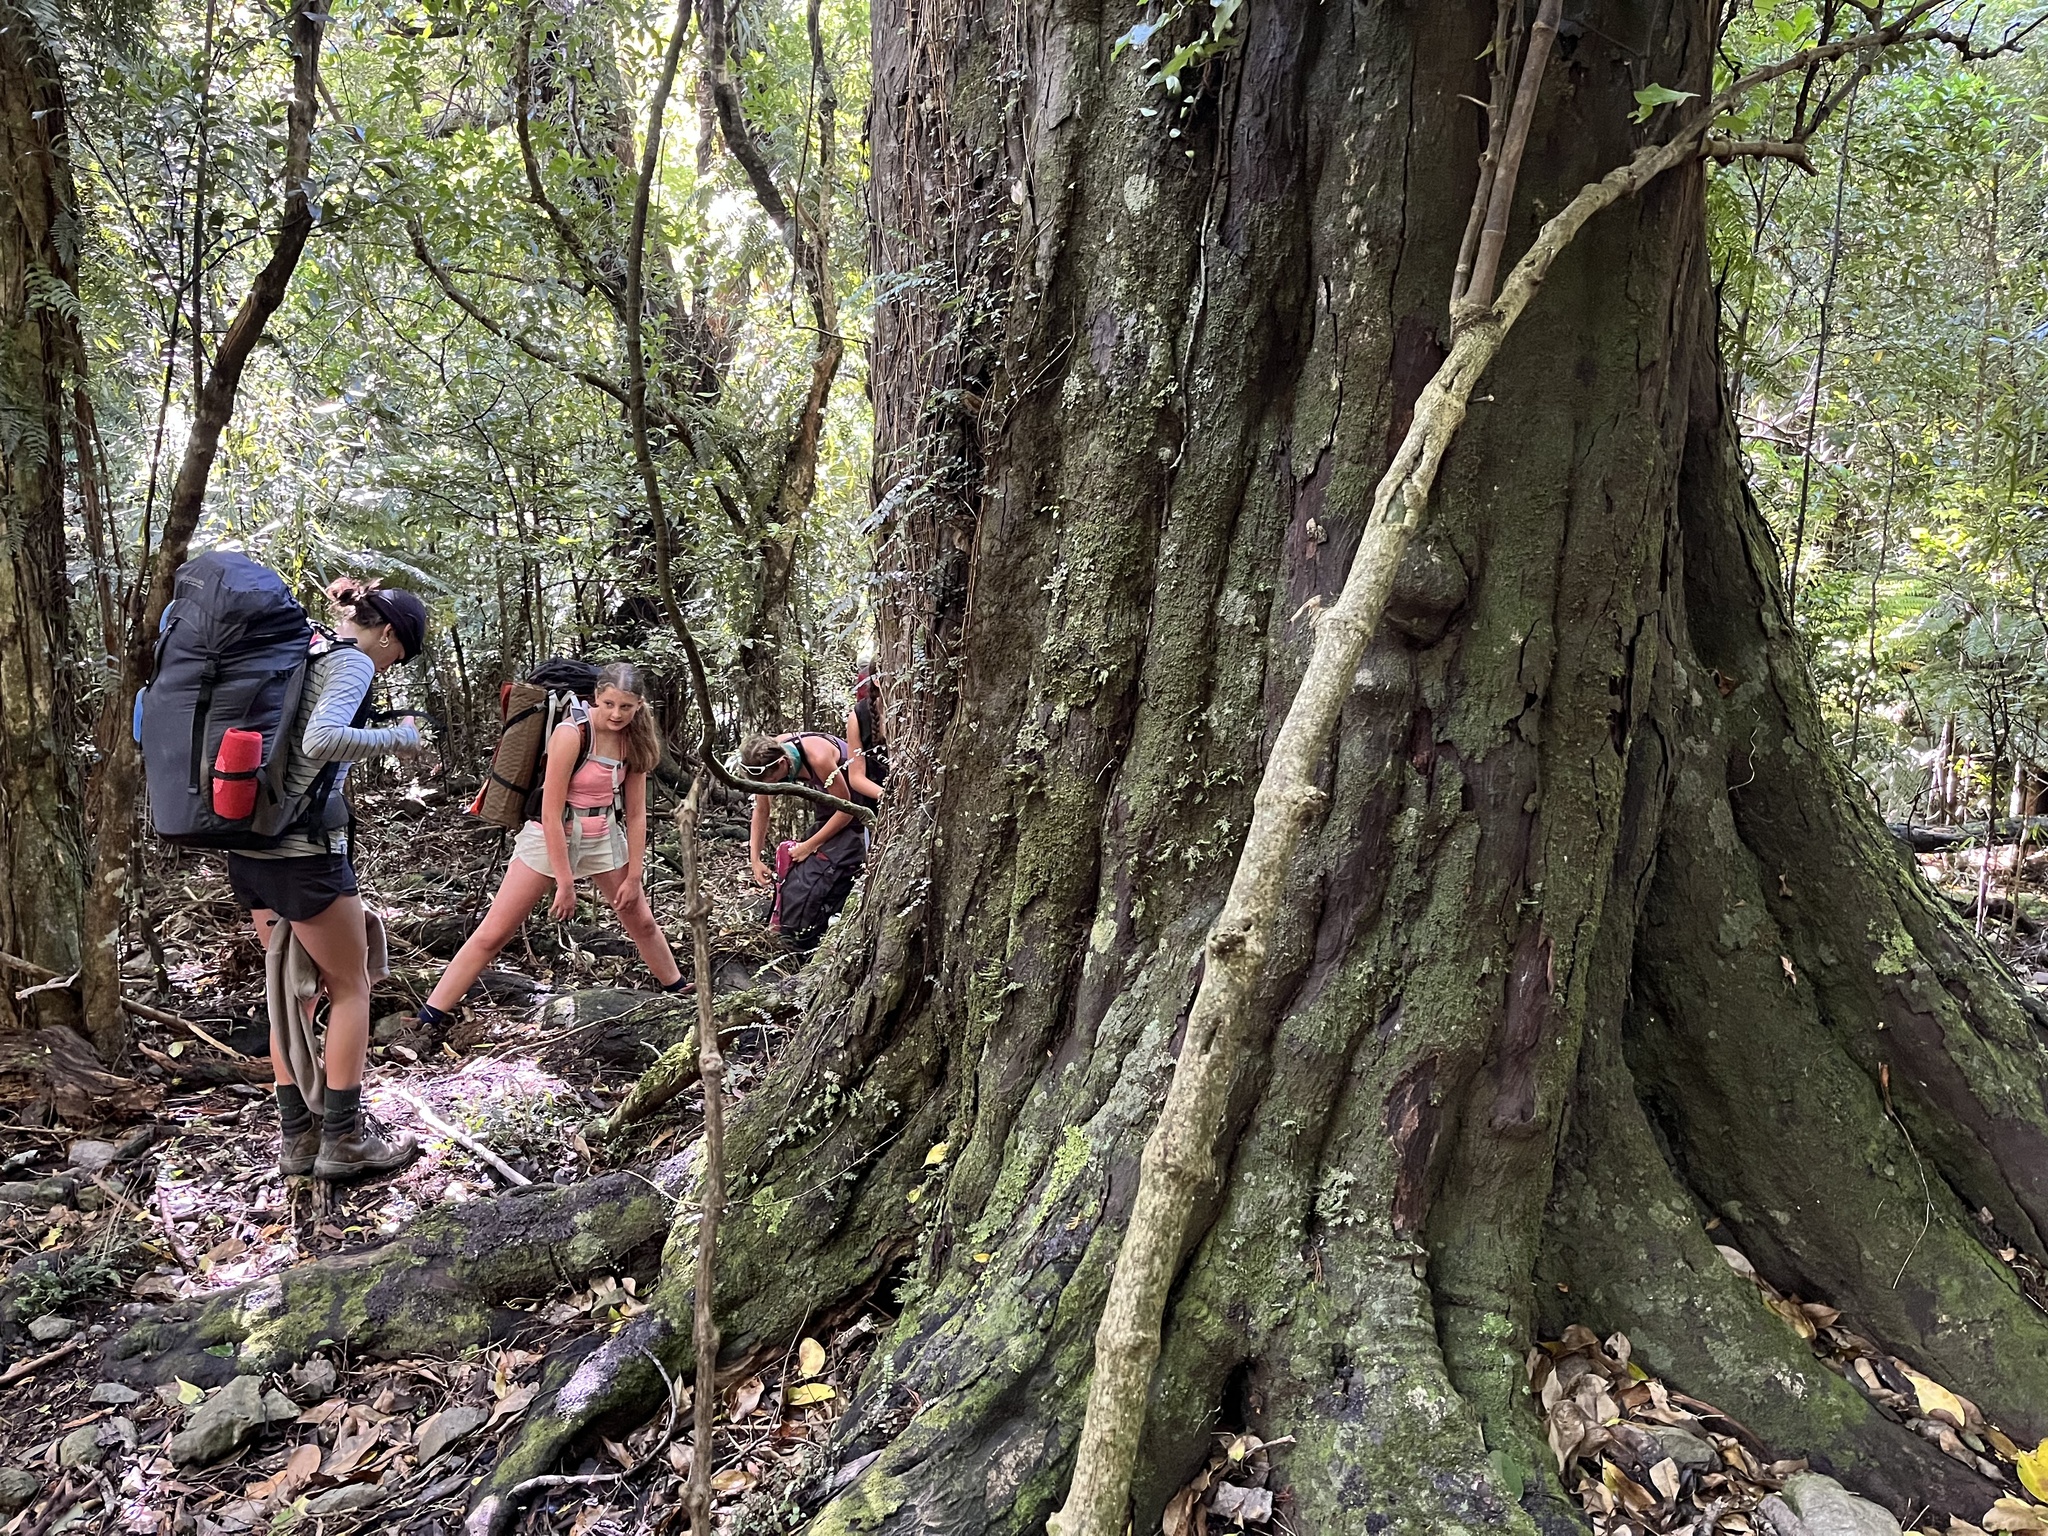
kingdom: Plantae
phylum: Tracheophyta
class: Pinopsida
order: Pinales
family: Podocarpaceae
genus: Dacrydium
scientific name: Dacrydium cupressinum
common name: Red pine
